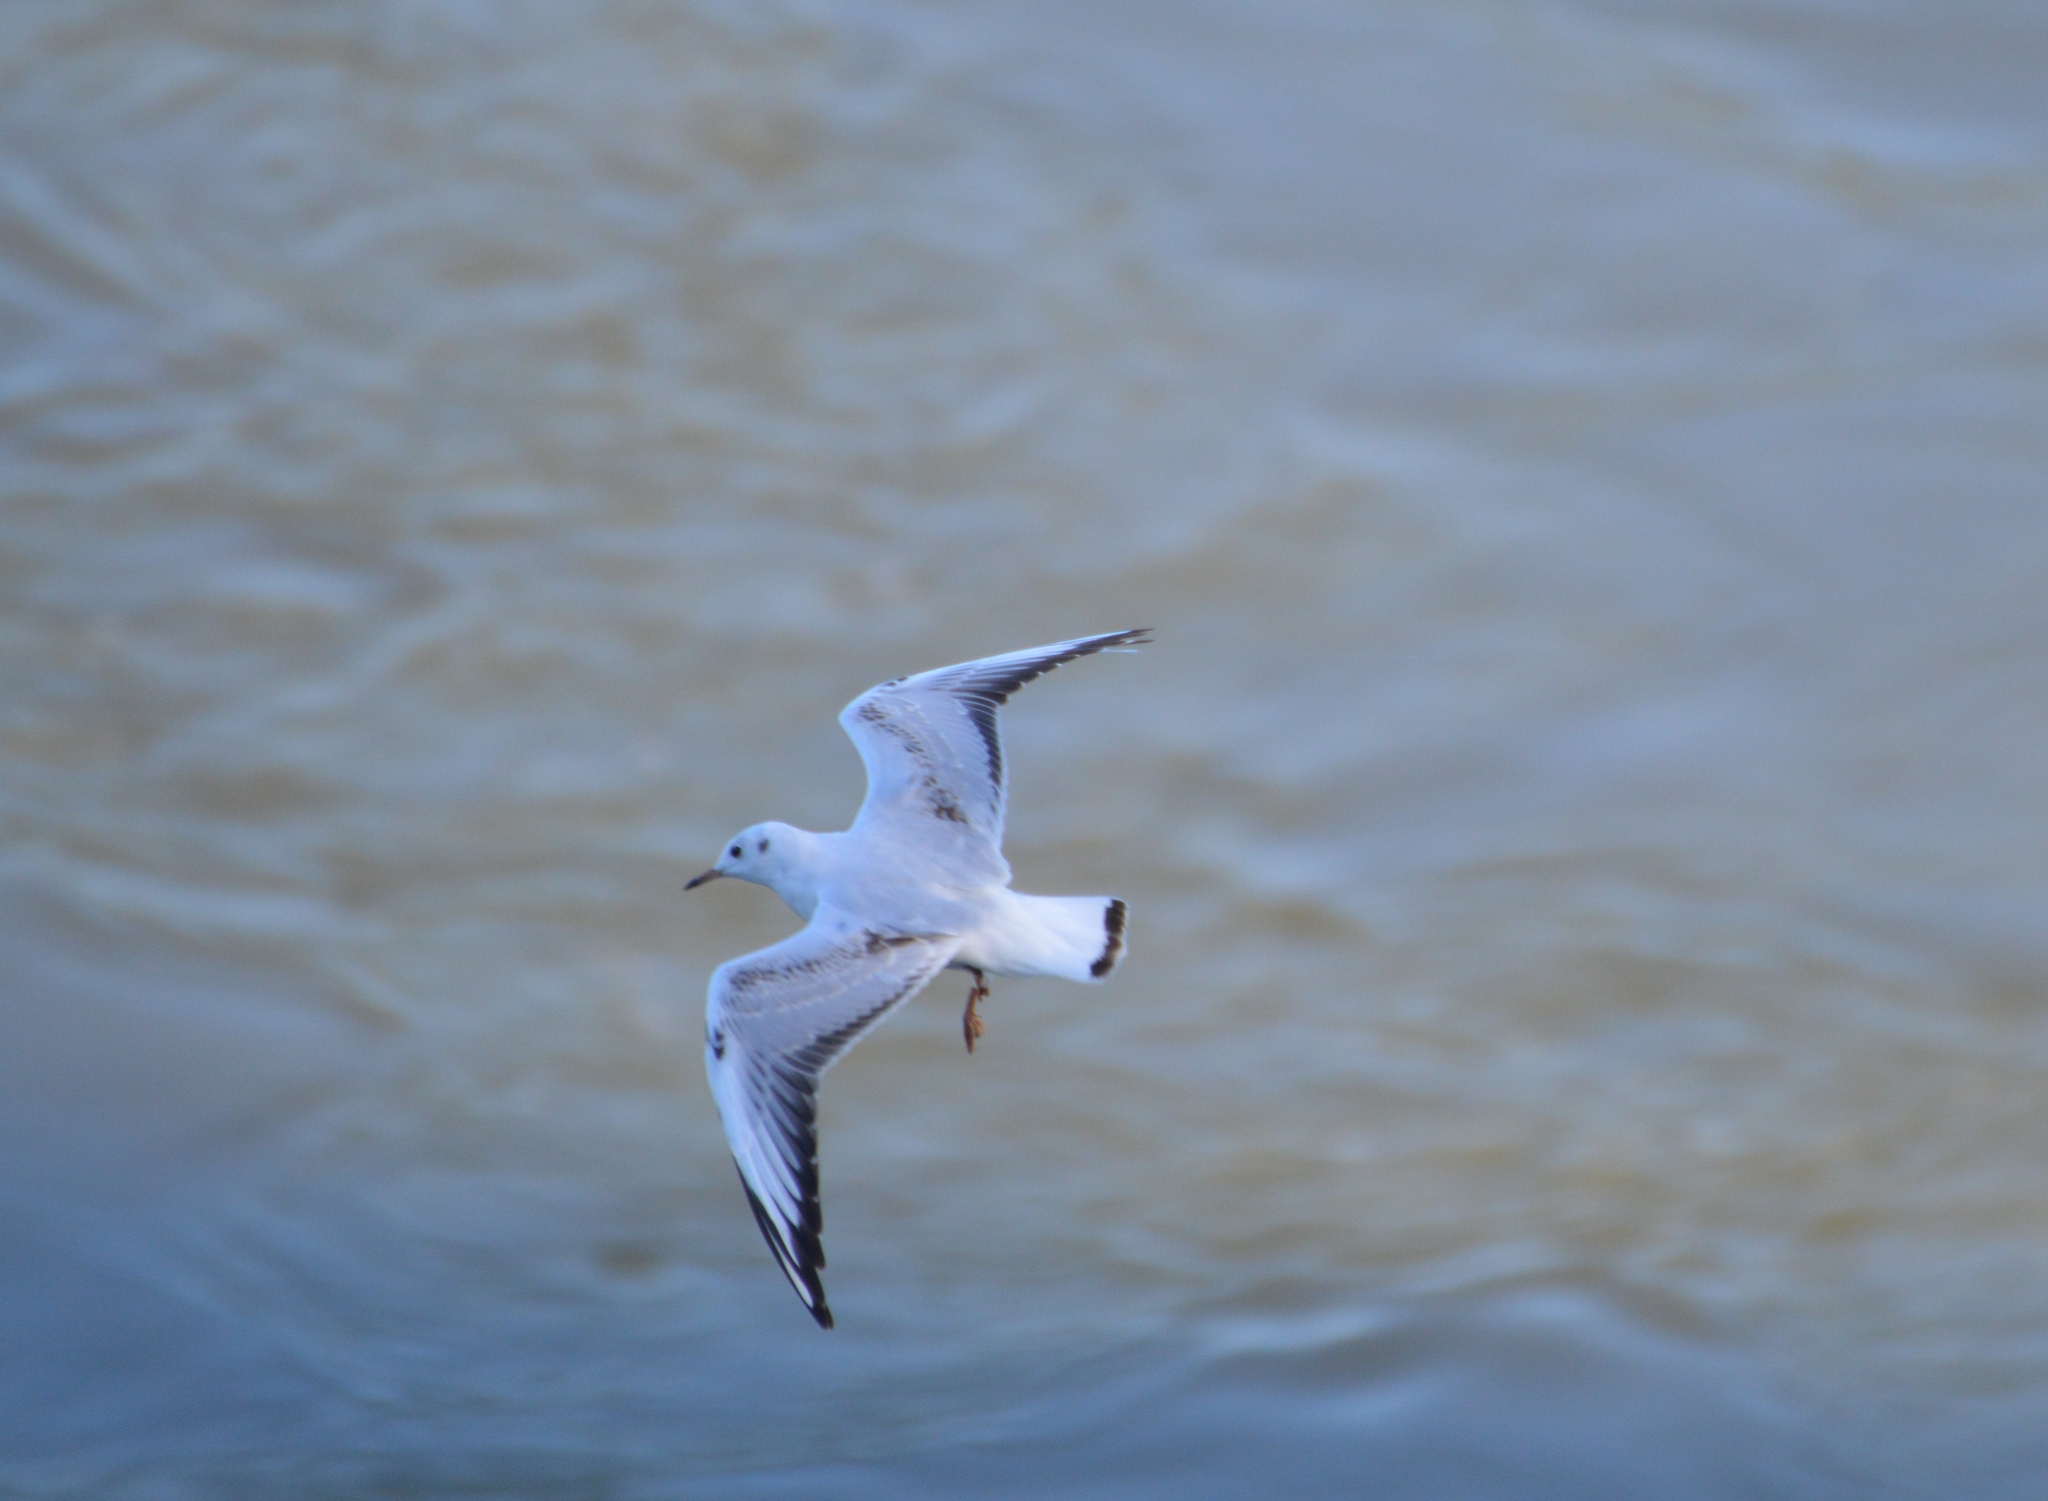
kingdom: Animalia
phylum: Chordata
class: Aves
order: Charadriiformes
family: Laridae
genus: Chroicocephalus
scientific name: Chroicocephalus ridibundus
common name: Black-headed gull
